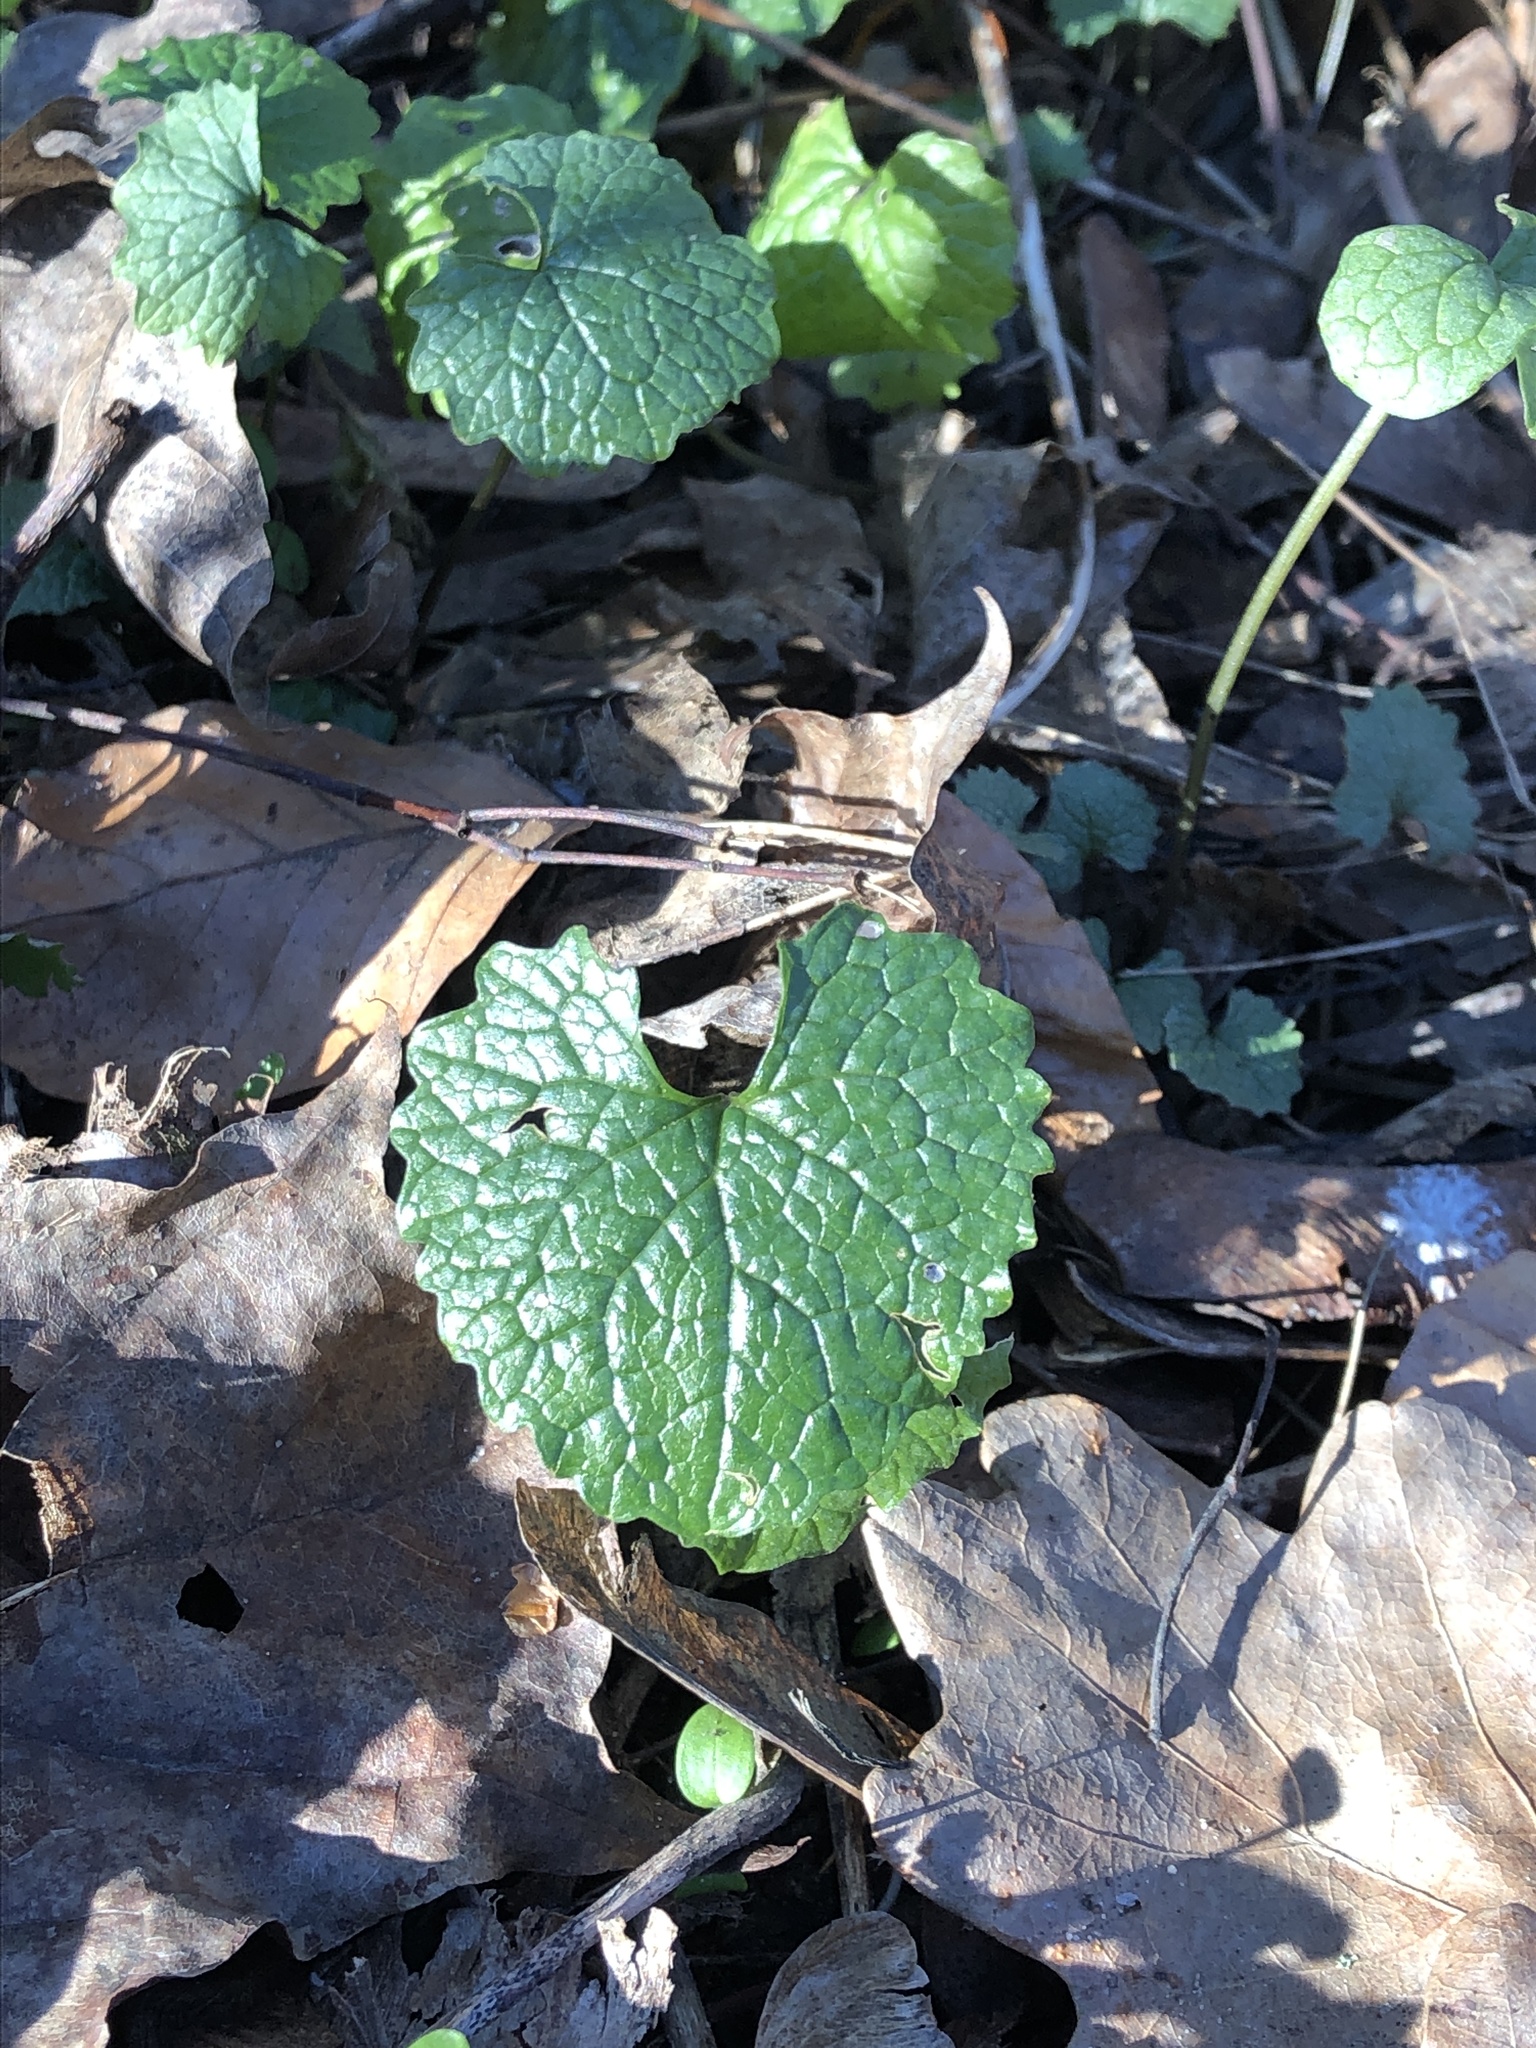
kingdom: Plantae
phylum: Tracheophyta
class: Magnoliopsida
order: Brassicales
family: Brassicaceae
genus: Alliaria
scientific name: Alliaria petiolata
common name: Garlic mustard
